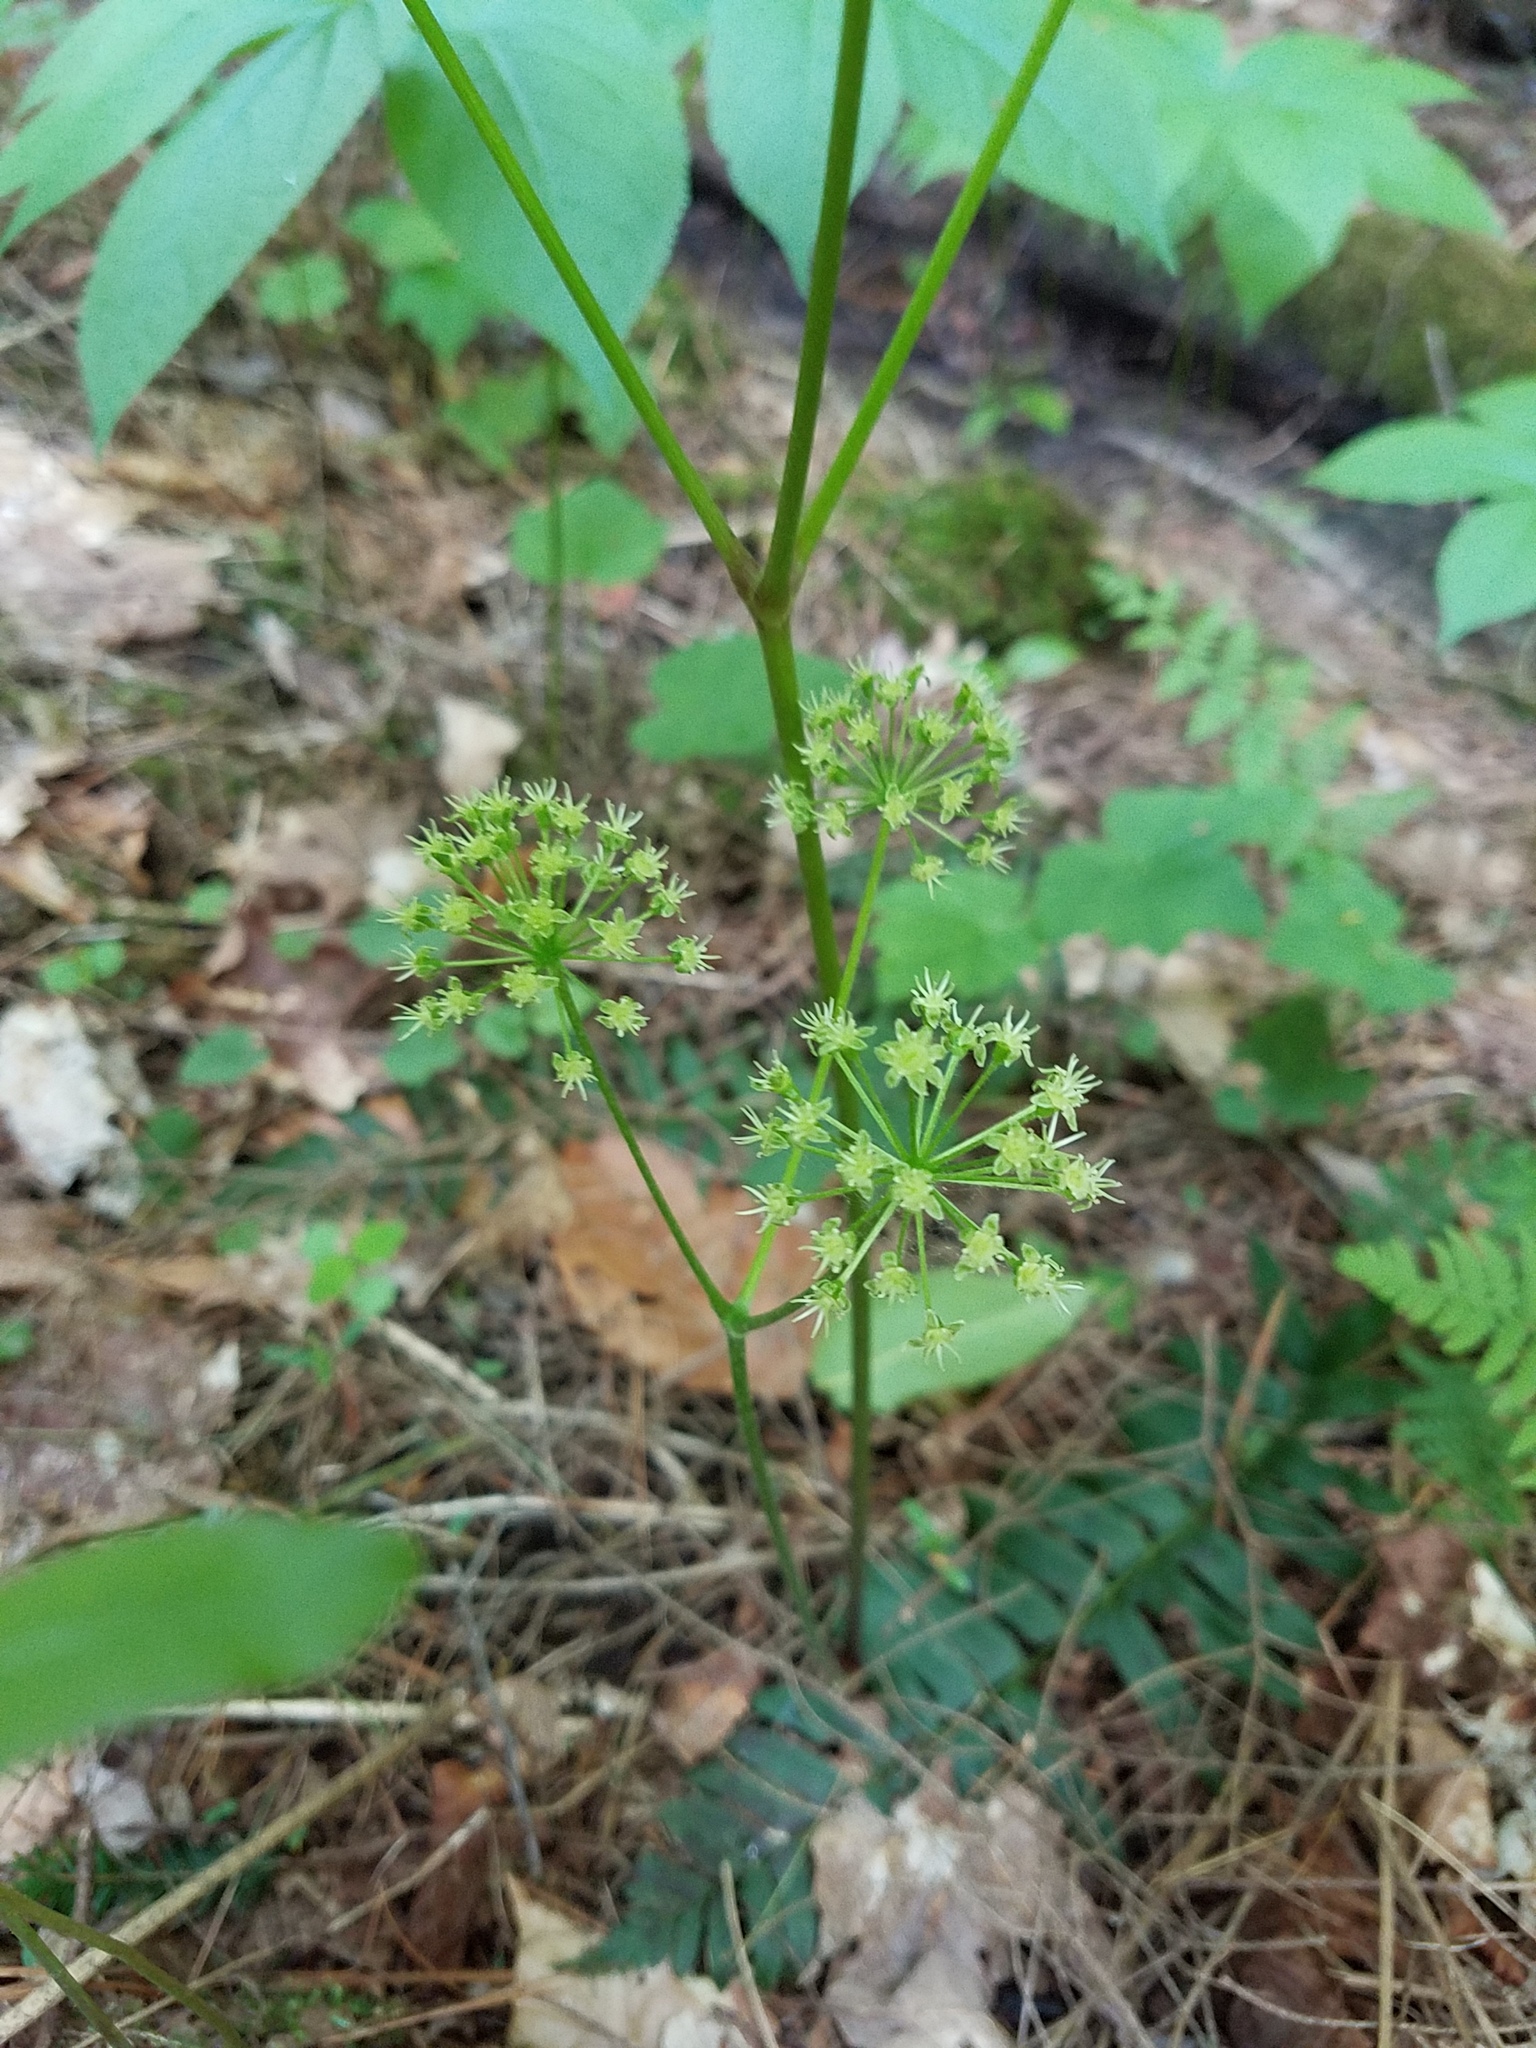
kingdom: Plantae
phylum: Tracheophyta
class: Magnoliopsida
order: Apiales
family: Araliaceae
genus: Aralia
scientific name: Aralia nudicaulis
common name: Wild sarsaparilla
